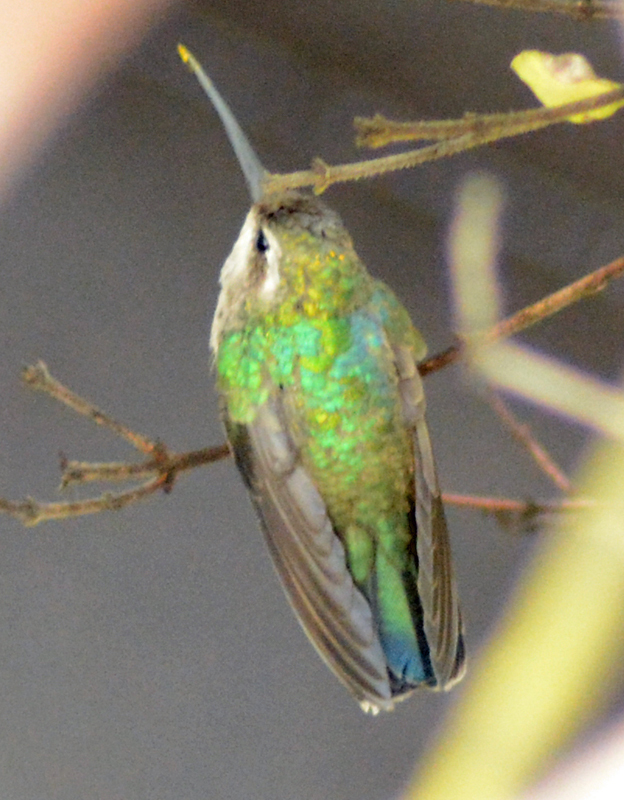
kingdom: Animalia
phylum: Chordata
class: Aves
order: Apodiformes
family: Trochilidae
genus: Cynanthus
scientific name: Cynanthus latirostris
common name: Broad-billed hummingbird
